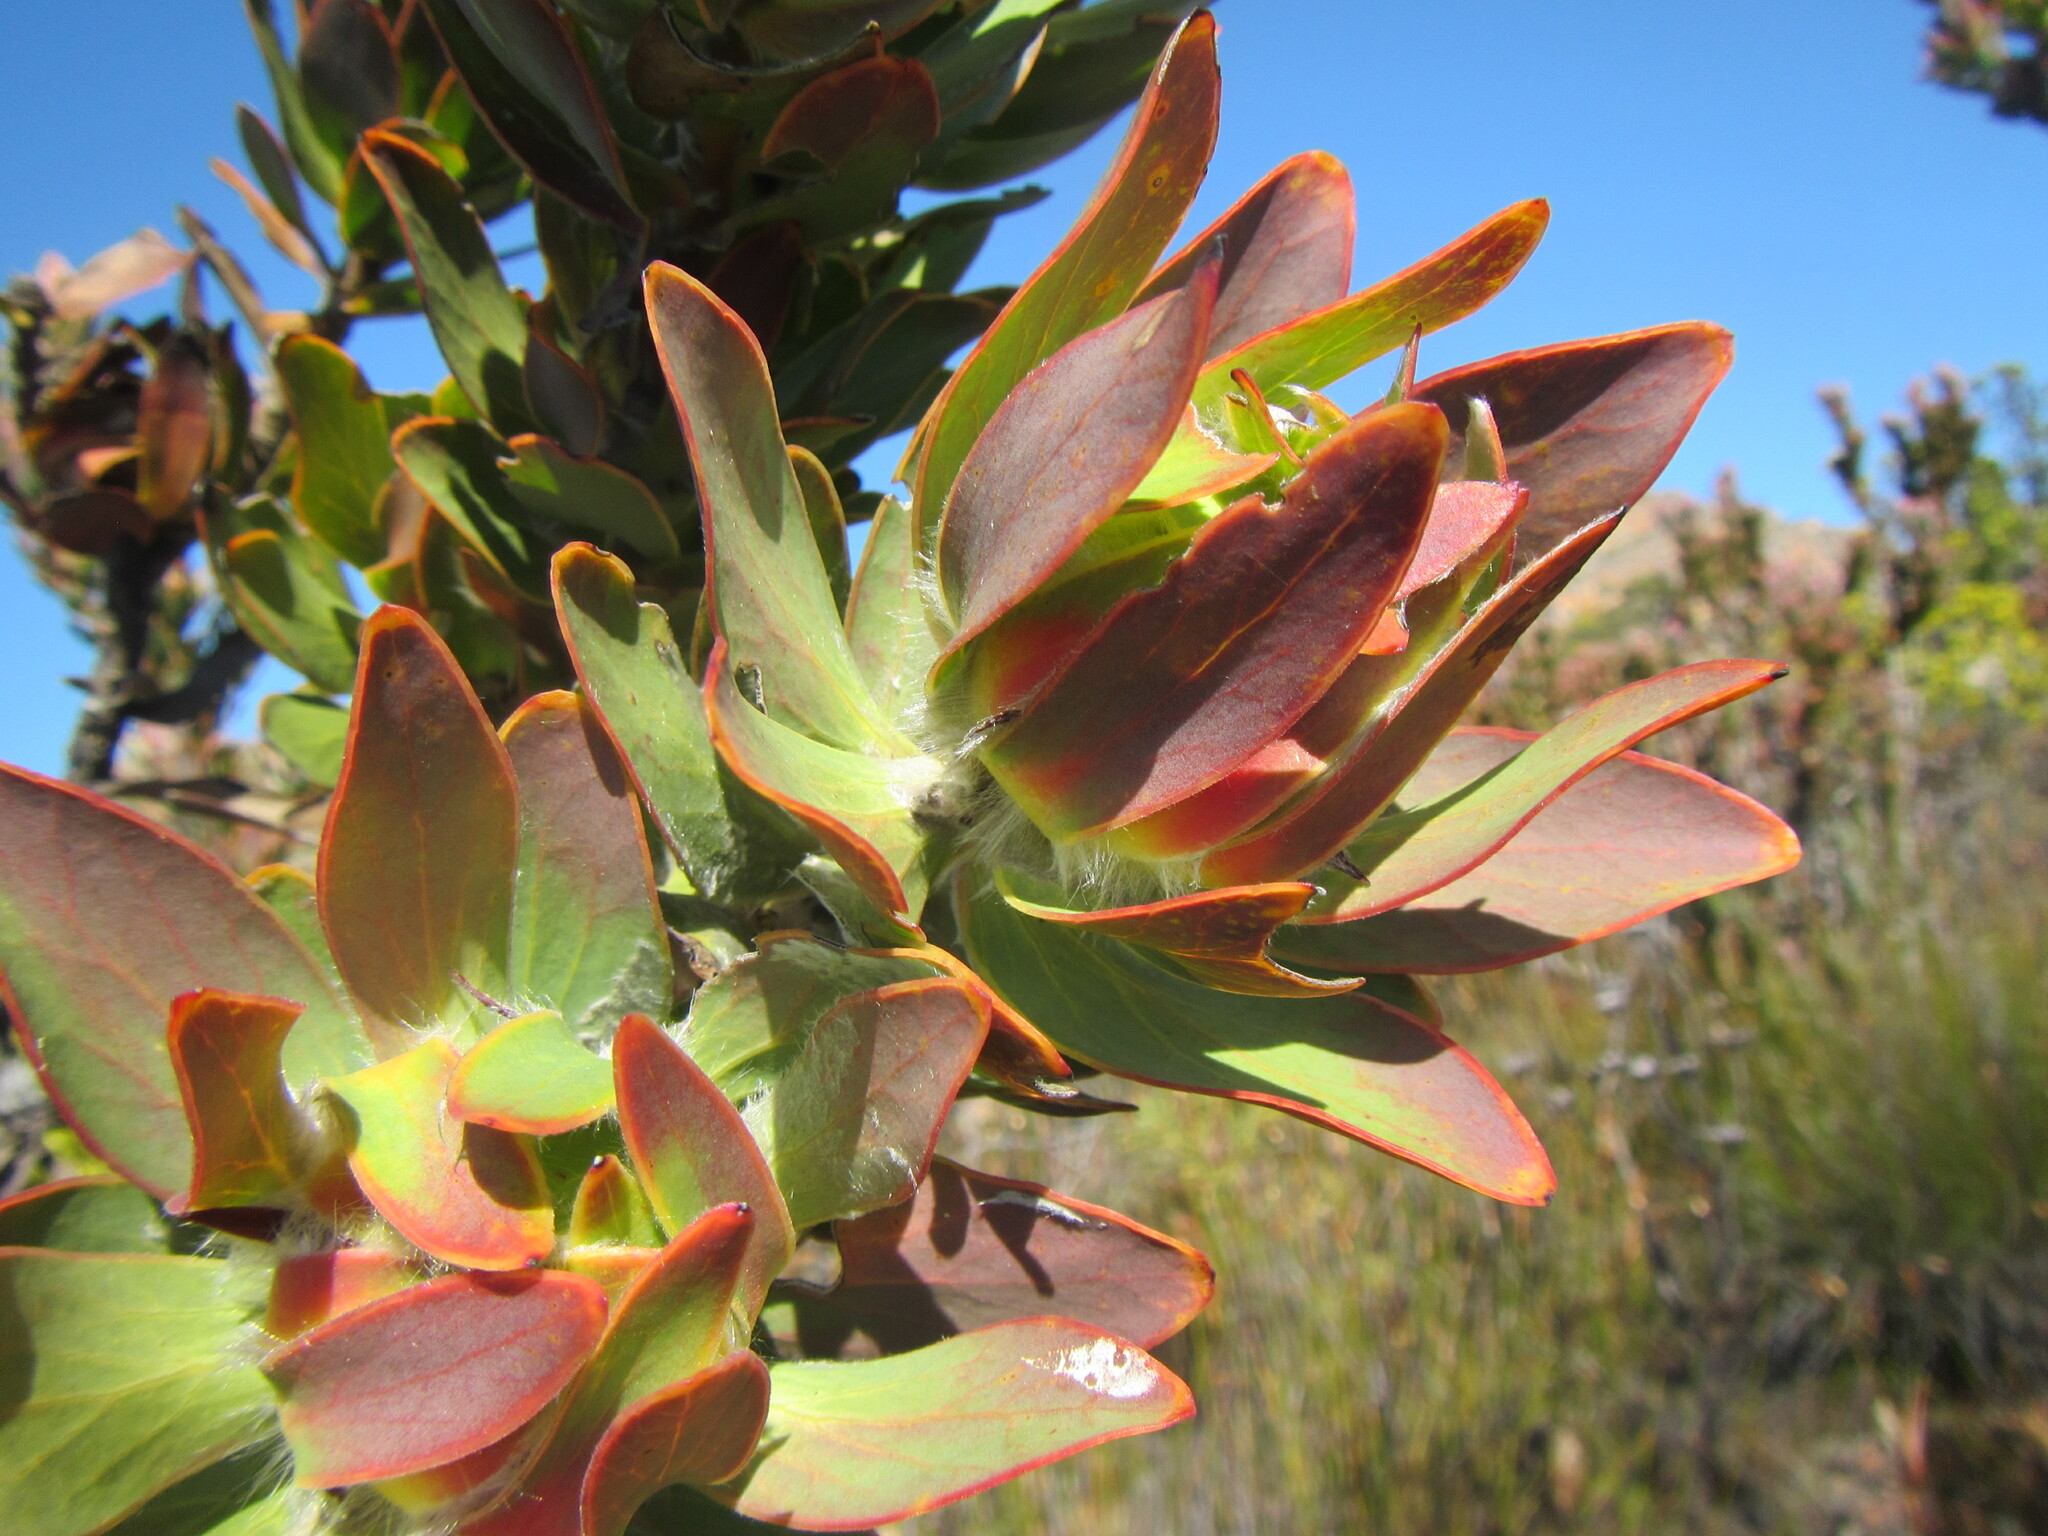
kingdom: Plantae
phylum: Tracheophyta
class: Magnoliopsida
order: Proteales
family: Proteaceae
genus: Leucadendron
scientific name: Leucadendron nervosum
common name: Silky-ruff conebush
